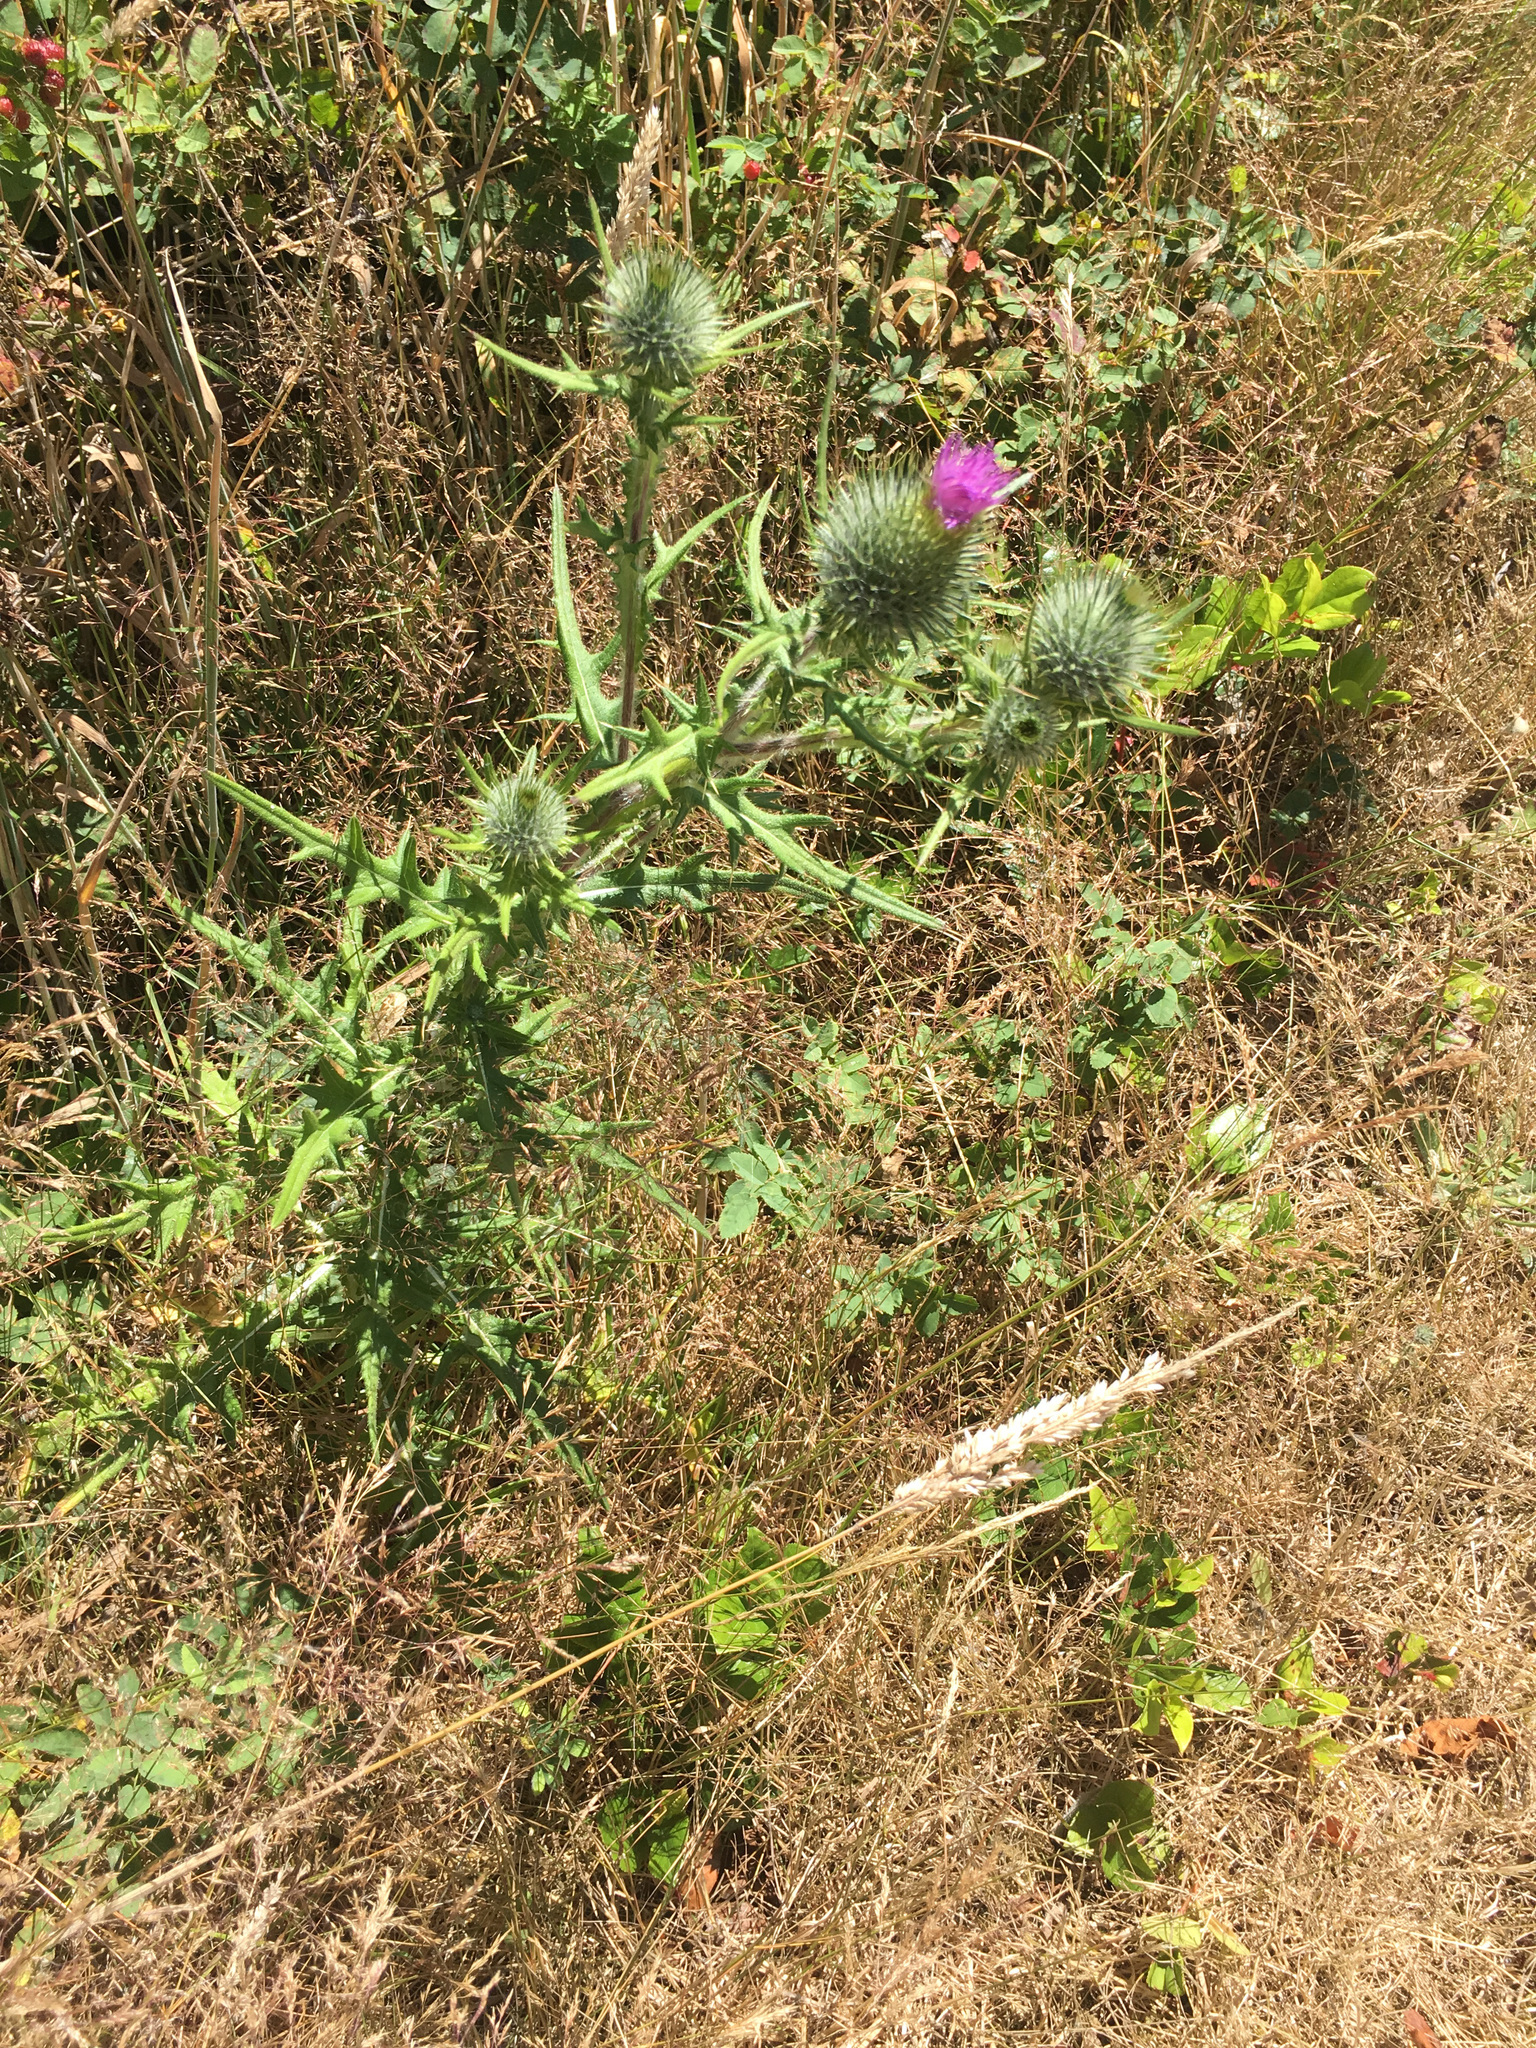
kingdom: Plantae
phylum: Tracheophyta
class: Magnoliopsida
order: Asterales
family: Asteraceae
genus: Cirsium
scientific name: Cirsium vulgare
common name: Bull thistle
